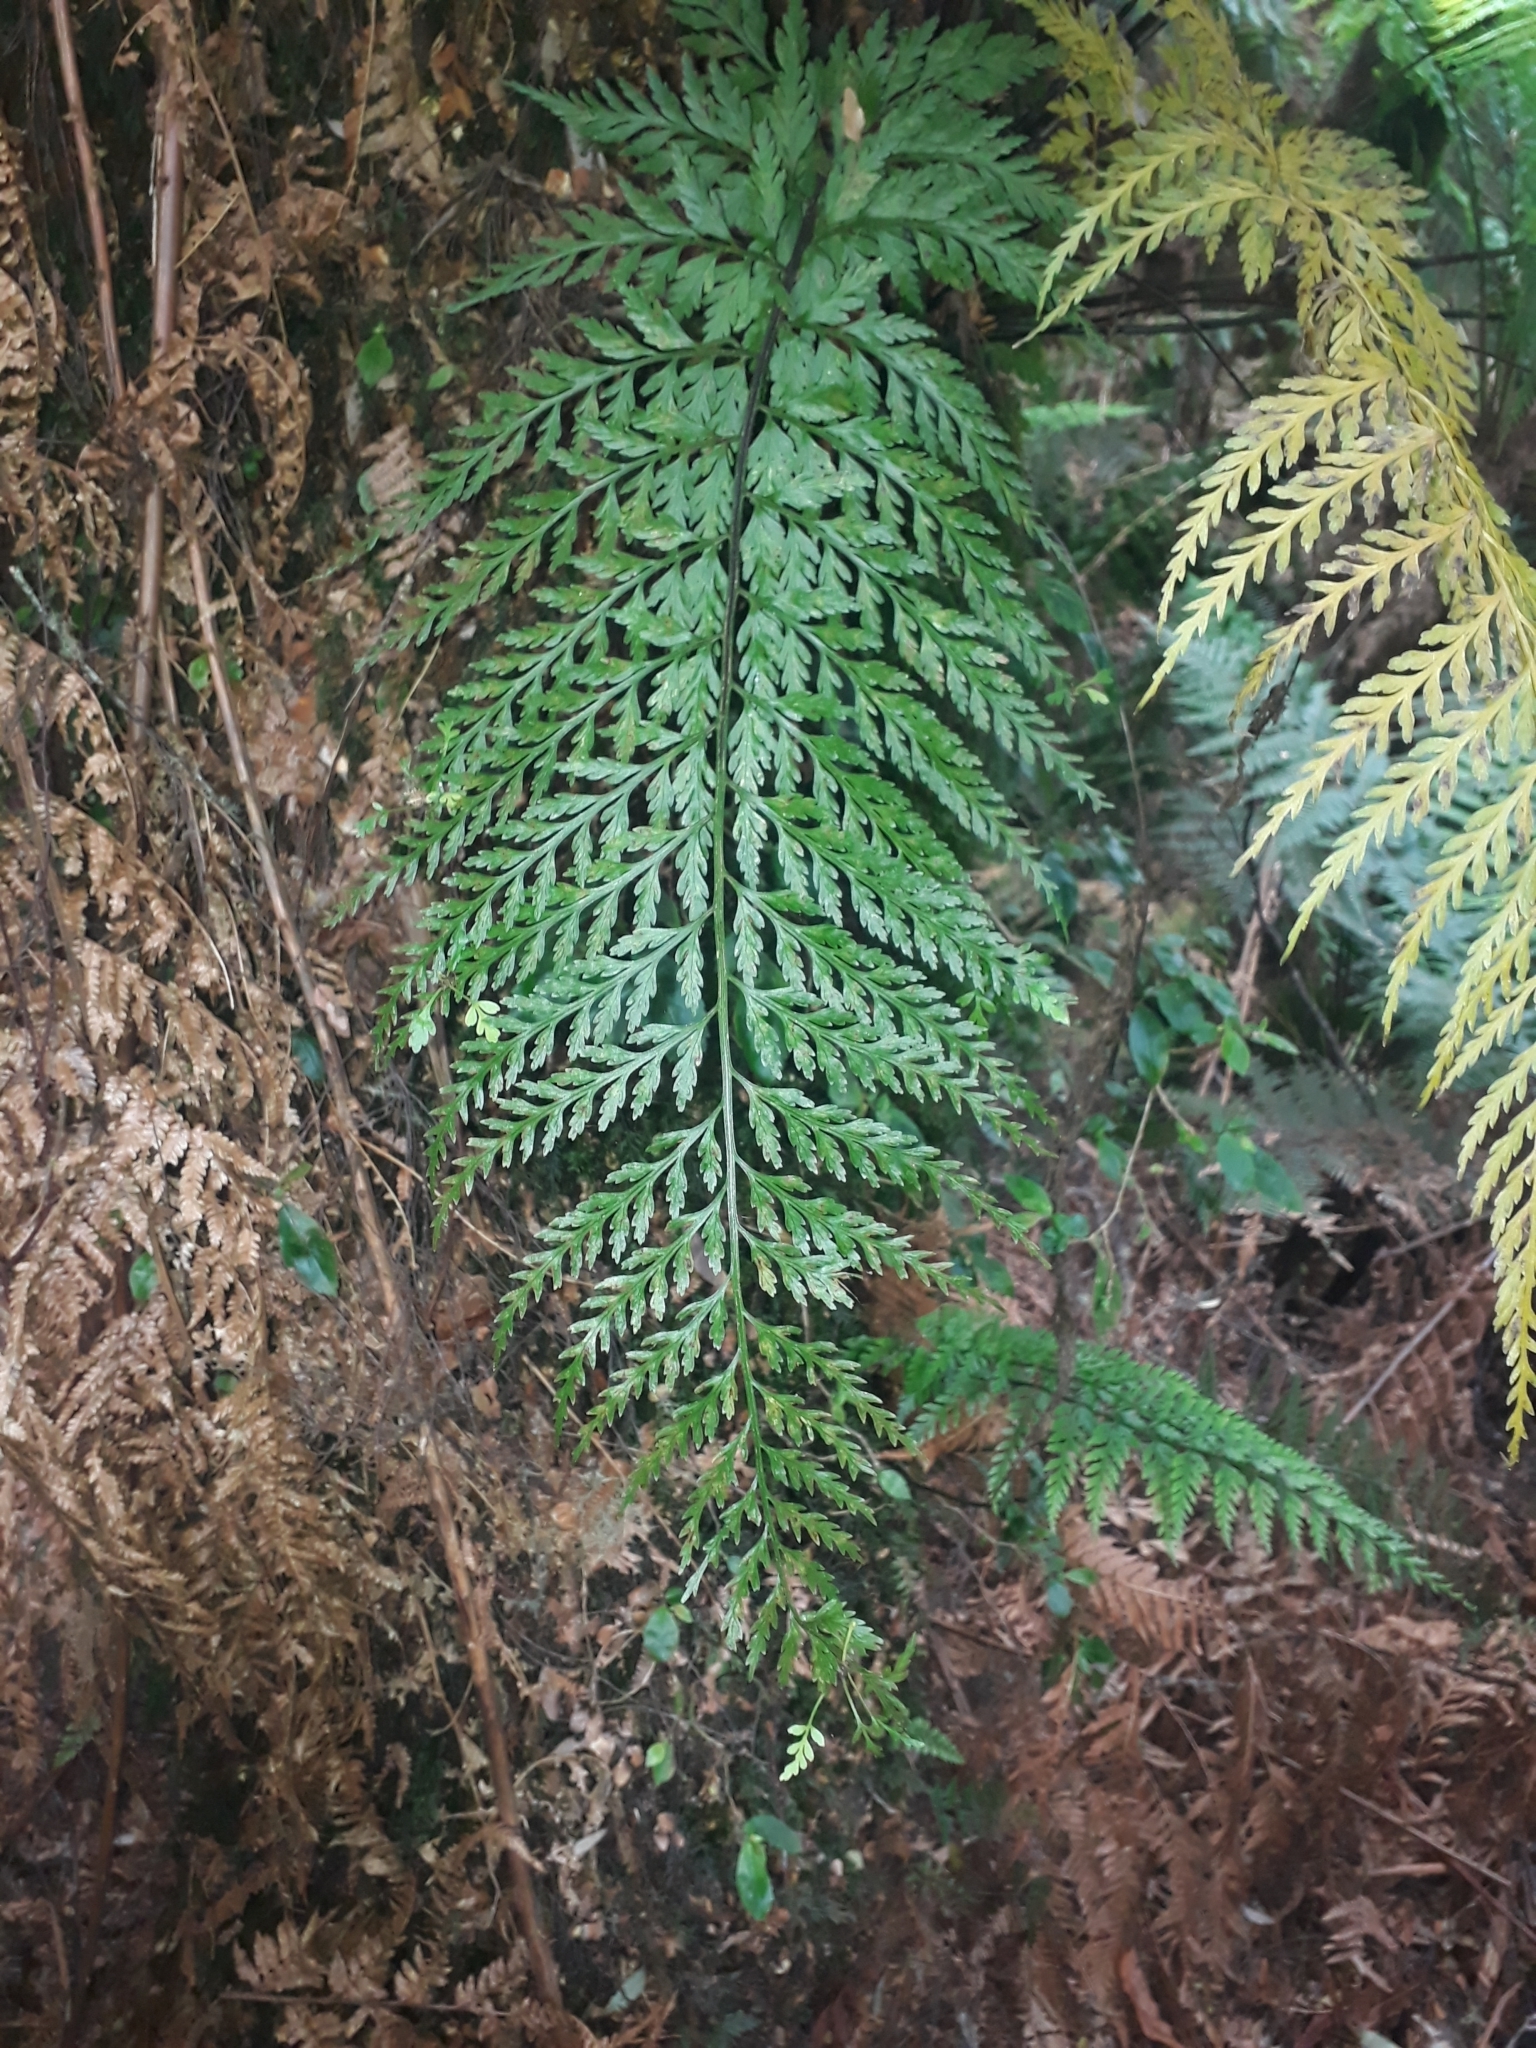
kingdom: Plantae
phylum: Tracheophyta
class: Polypodiopsida
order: Polypodiales
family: Aspleniaceae
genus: Asplenium
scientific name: Asplenium
